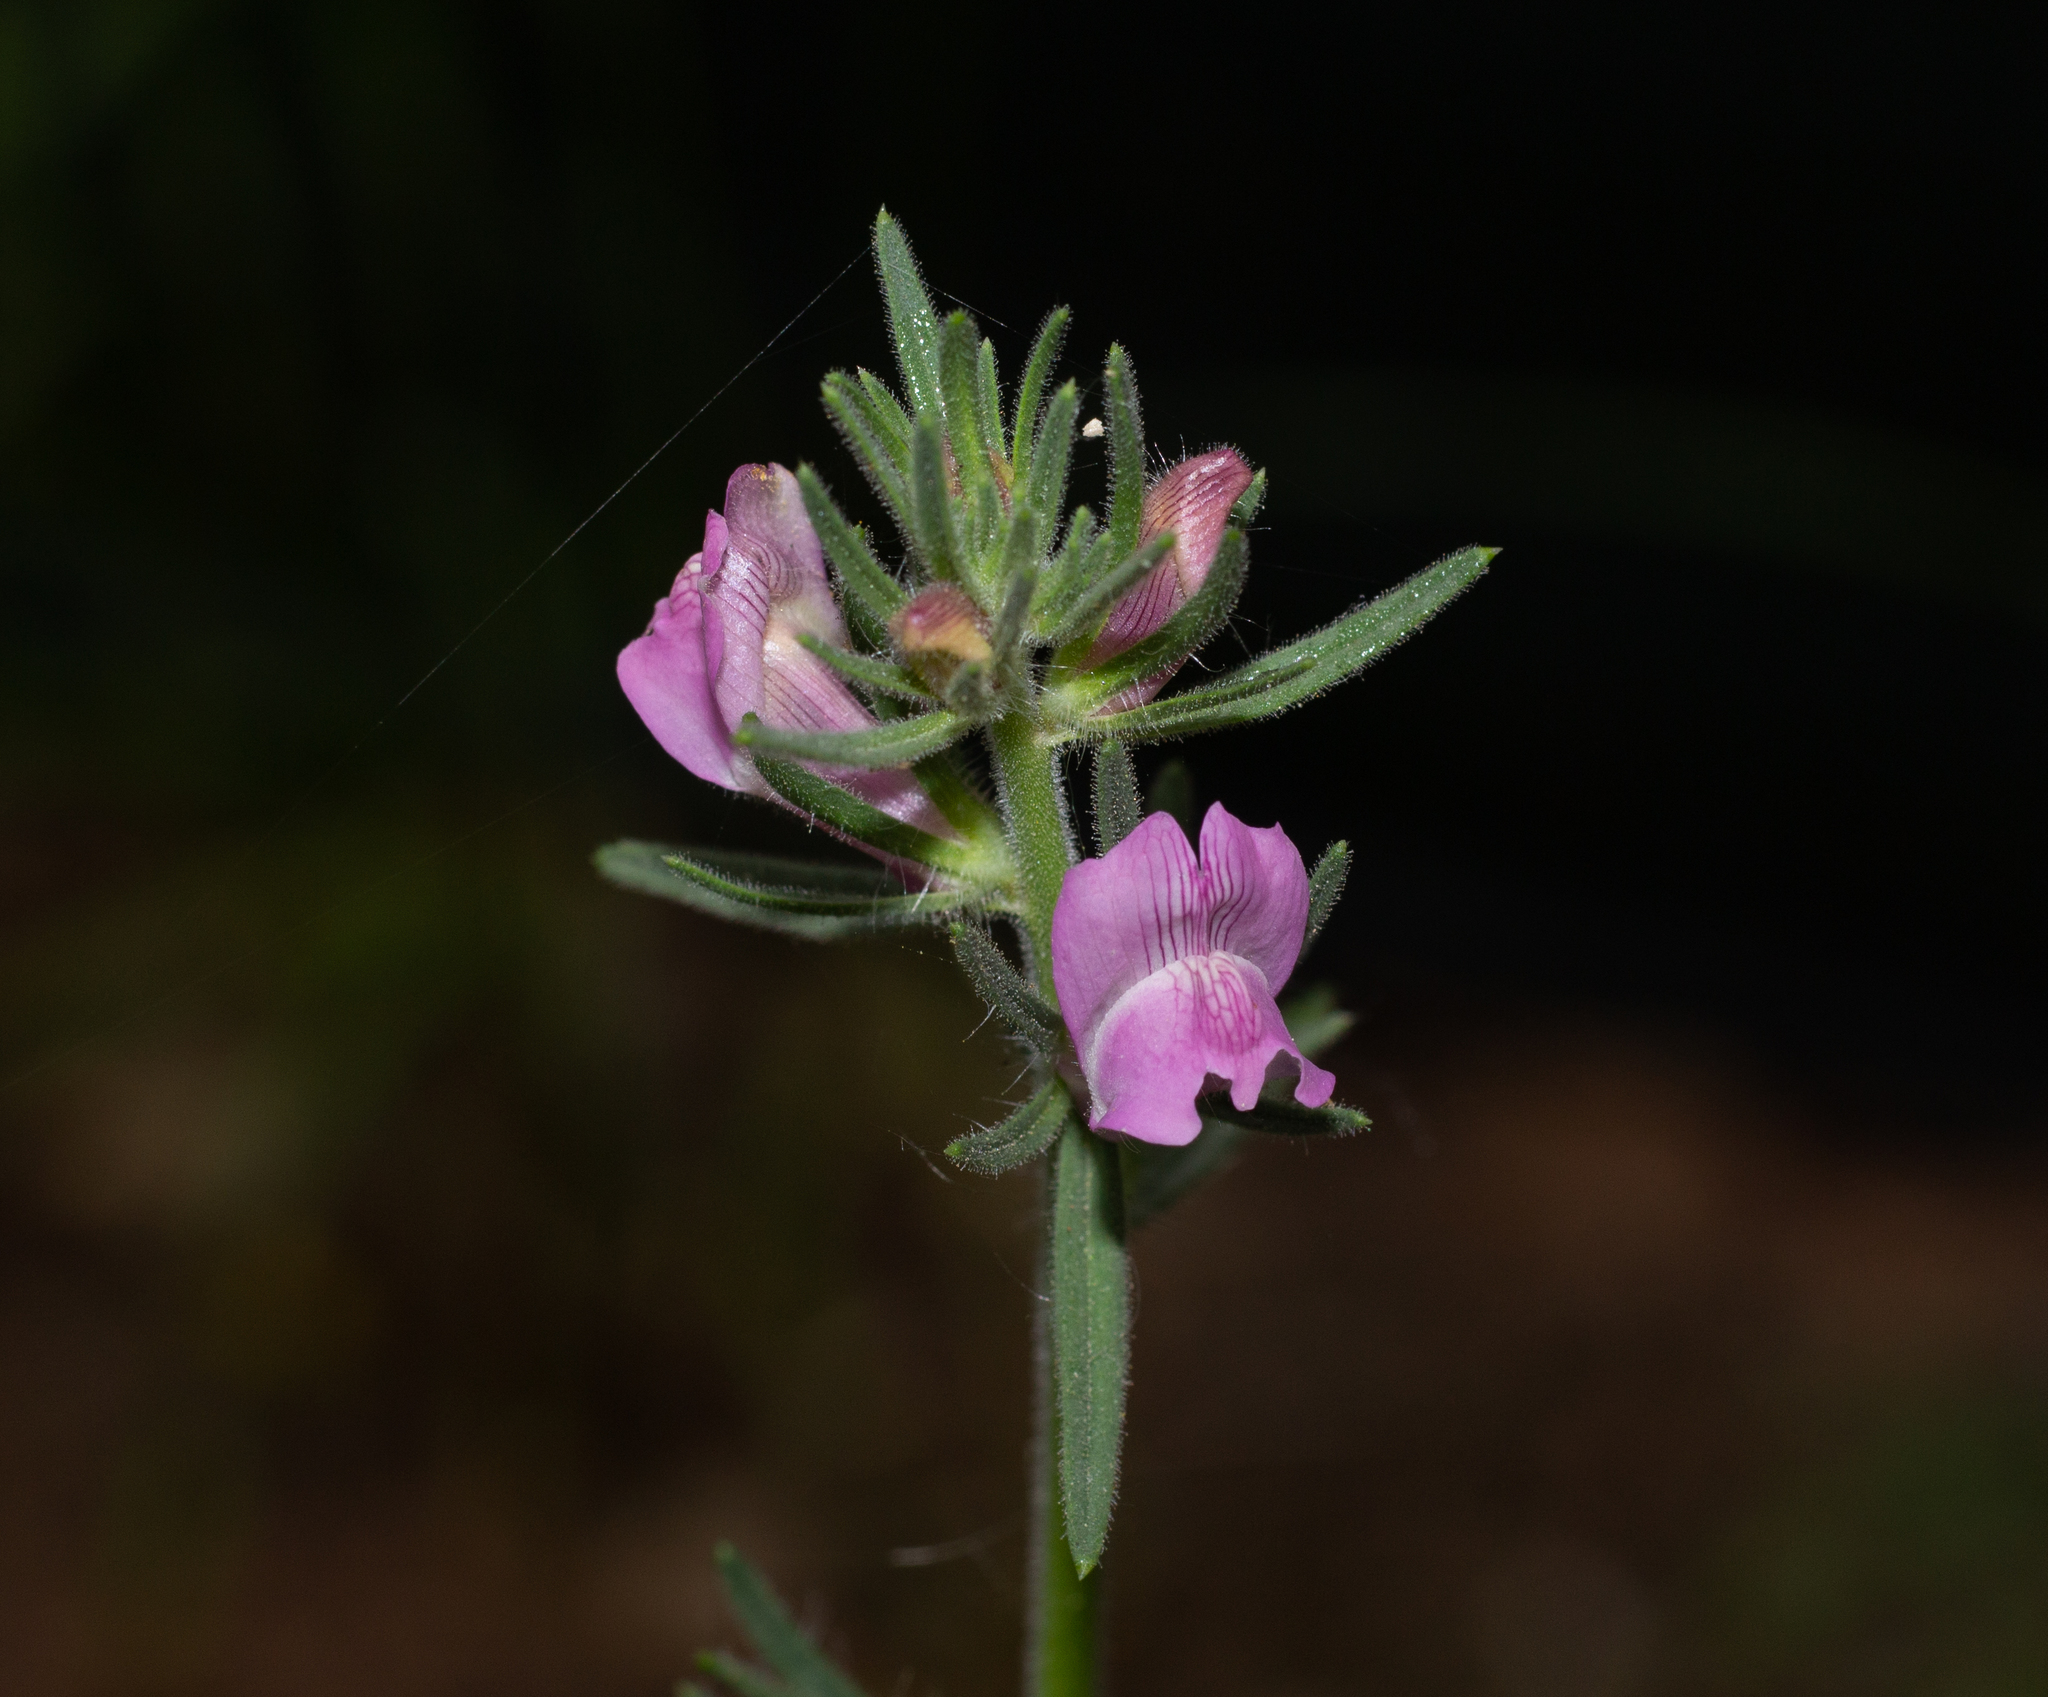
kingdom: Plantae
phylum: Tracheophyta
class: Magnoliopsida
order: Lamiales
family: Plantaginaceae
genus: Misopates
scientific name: Misopates orontium
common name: Weasel's-snout
